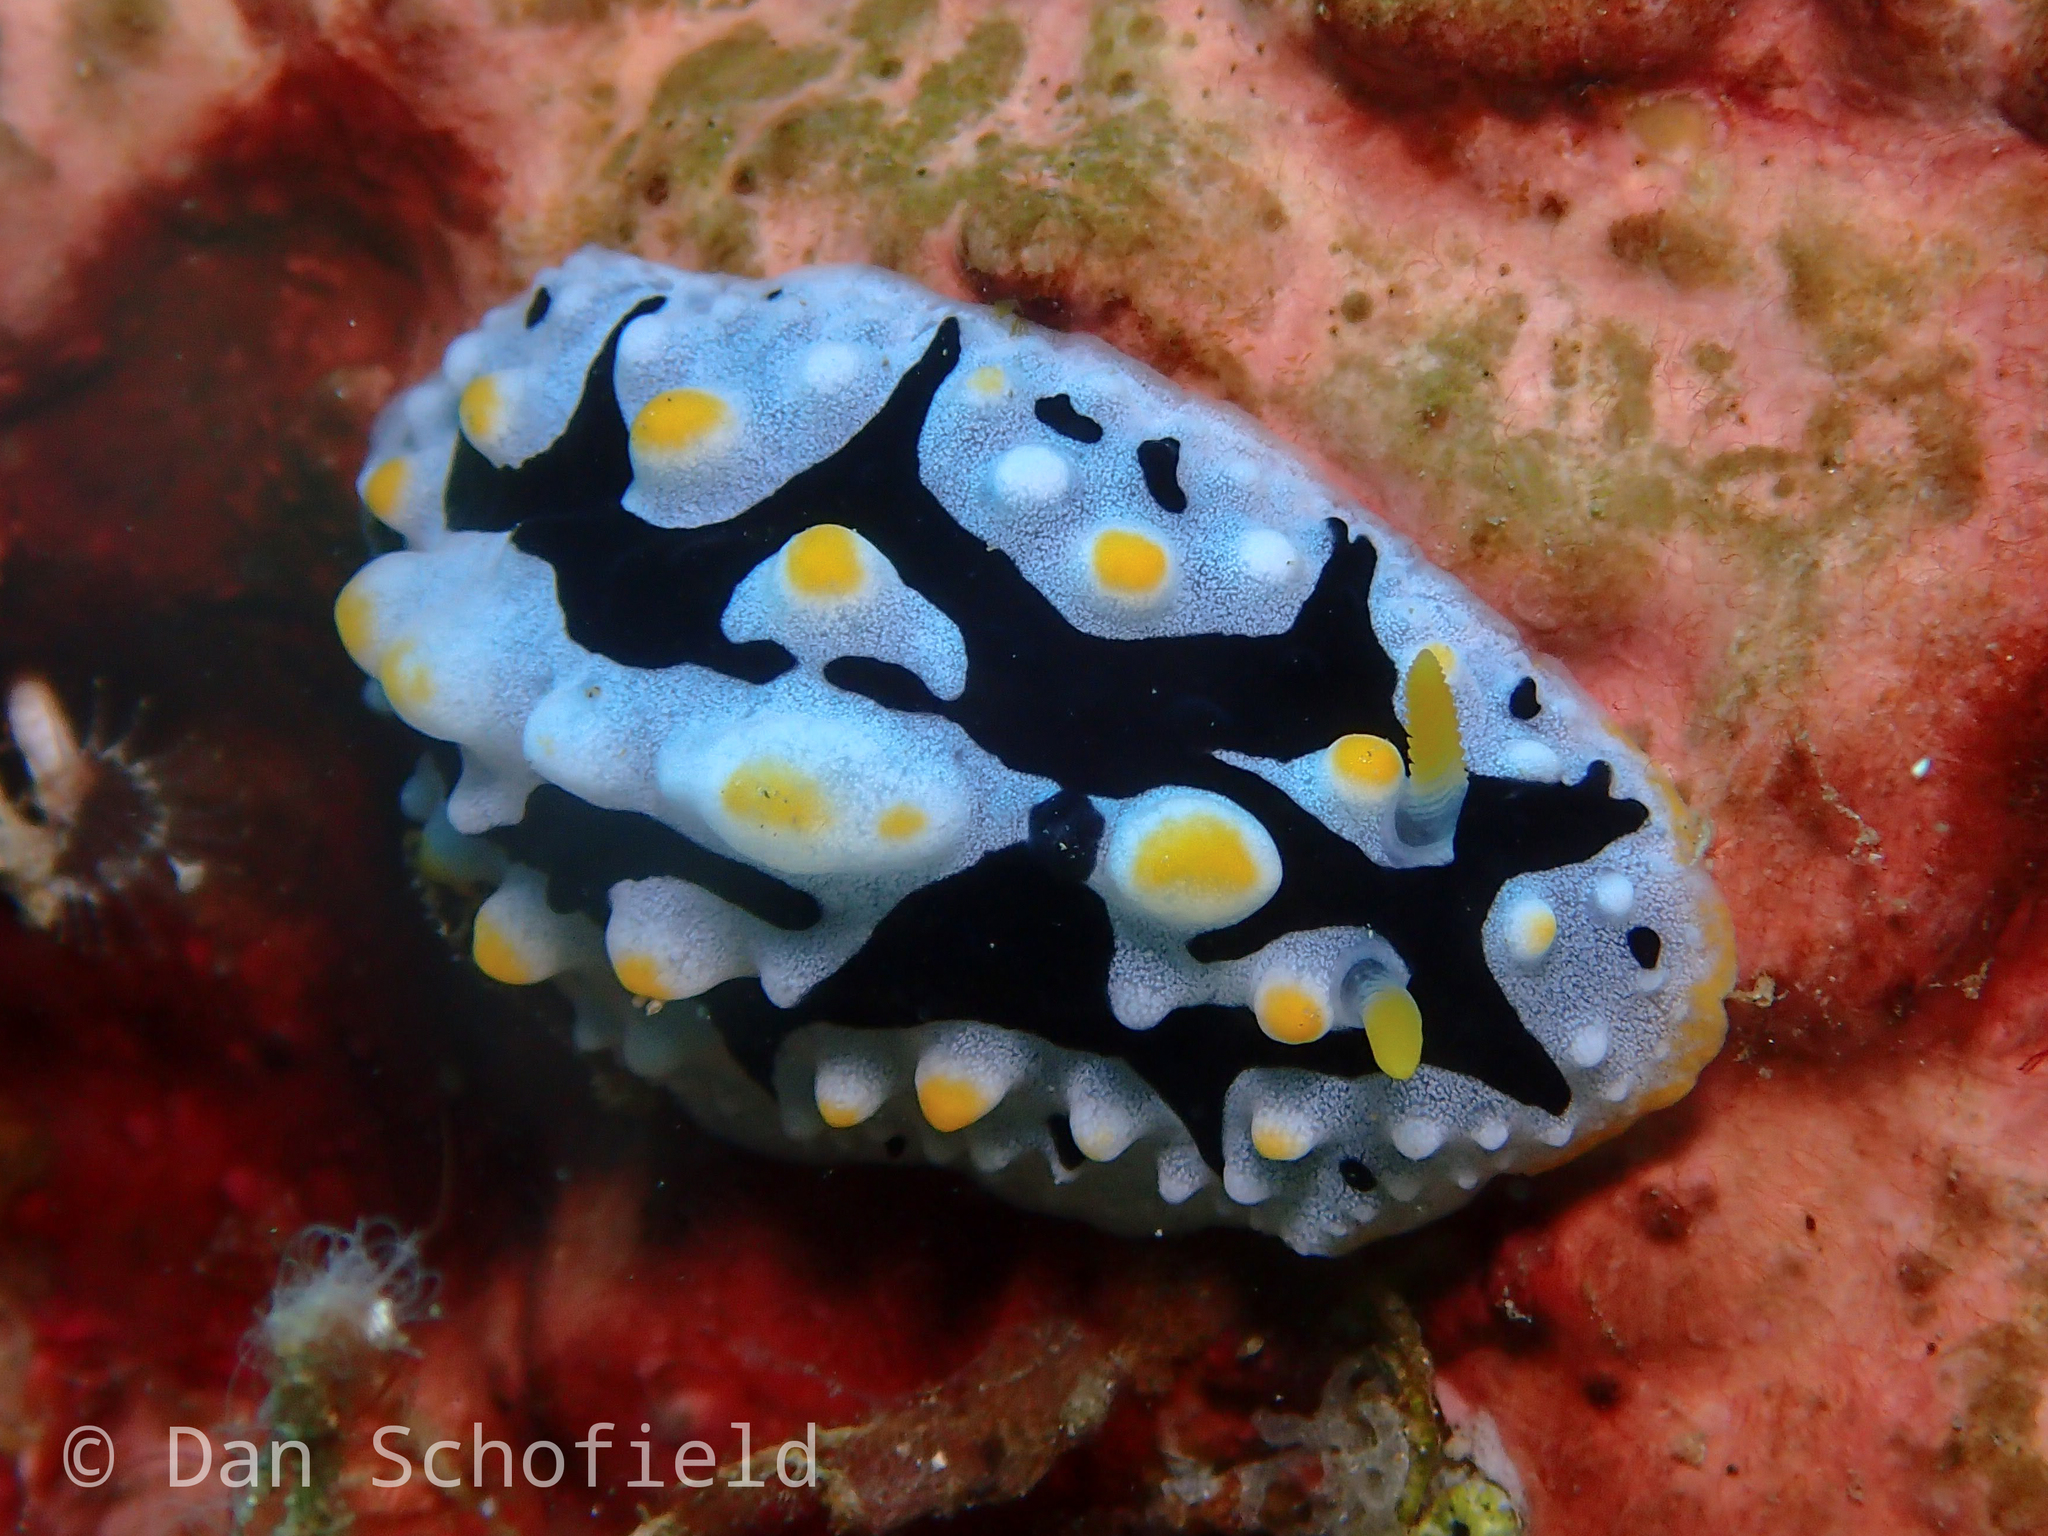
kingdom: Animalia
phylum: Mollusca
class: Gastropoda
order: Nudibranchia
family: Phyllidiidae
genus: Phyllidia
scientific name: Phyllidia exquisita
